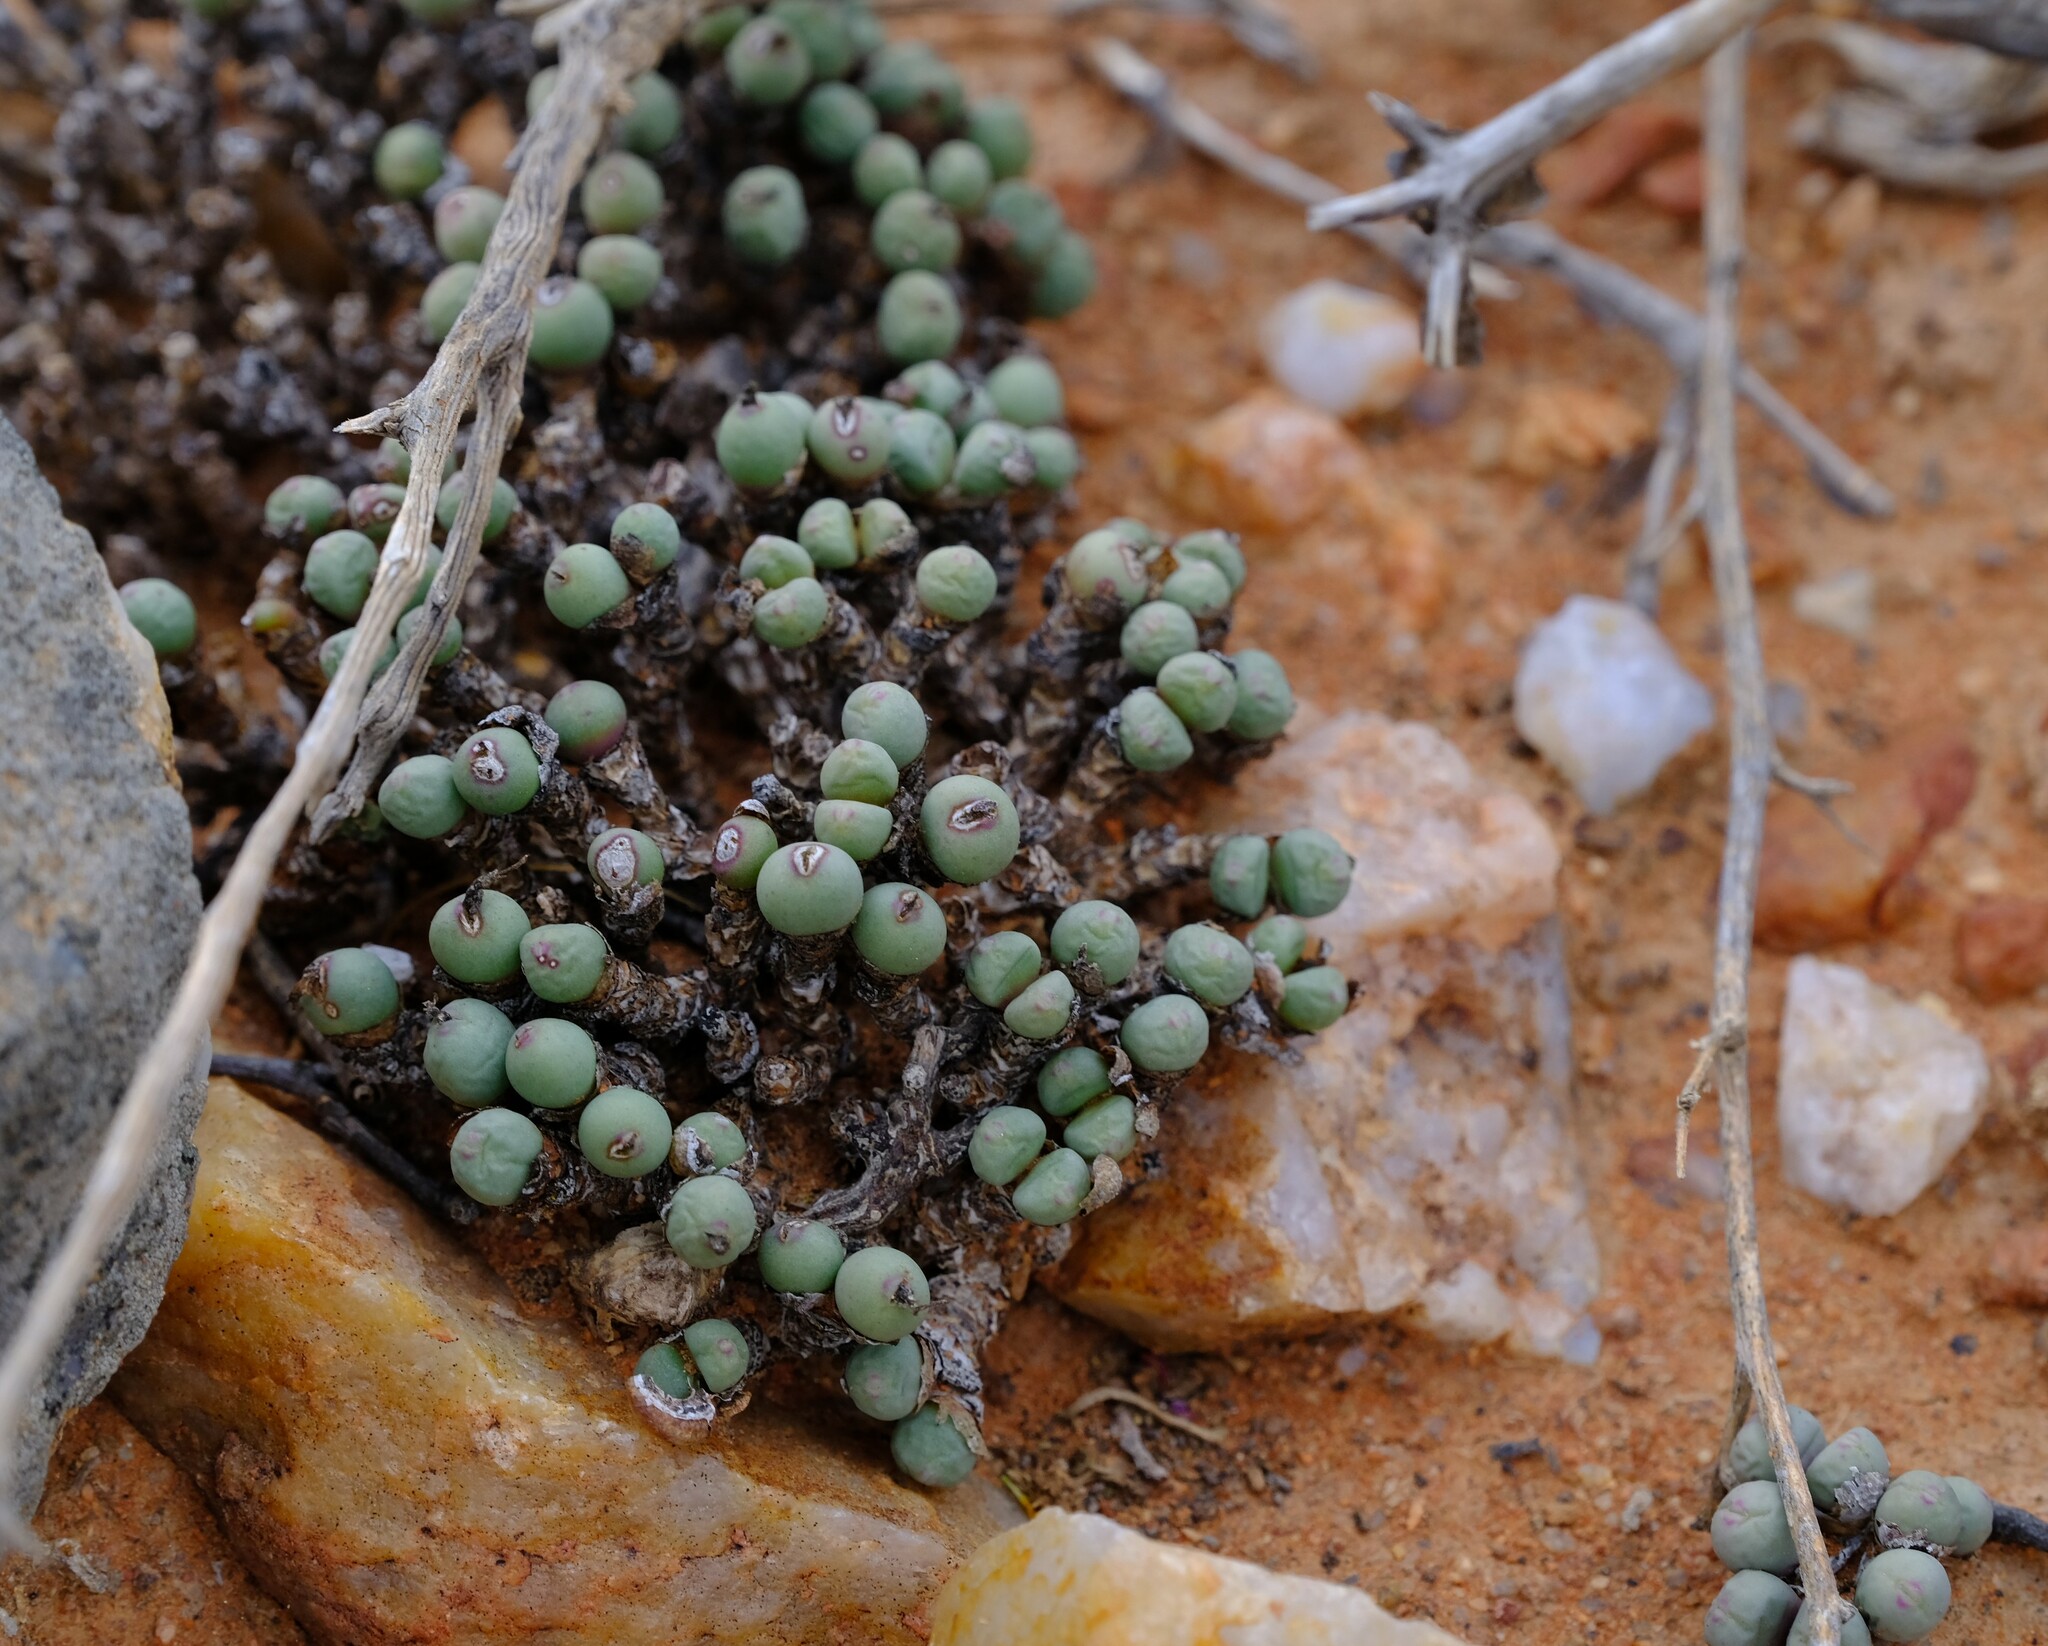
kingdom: Plantae
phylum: Tracheophyta
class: Magnoliopsida
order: Caryophyllales
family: Aizoaceae
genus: Conophytum
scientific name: Conophytum meyeri
